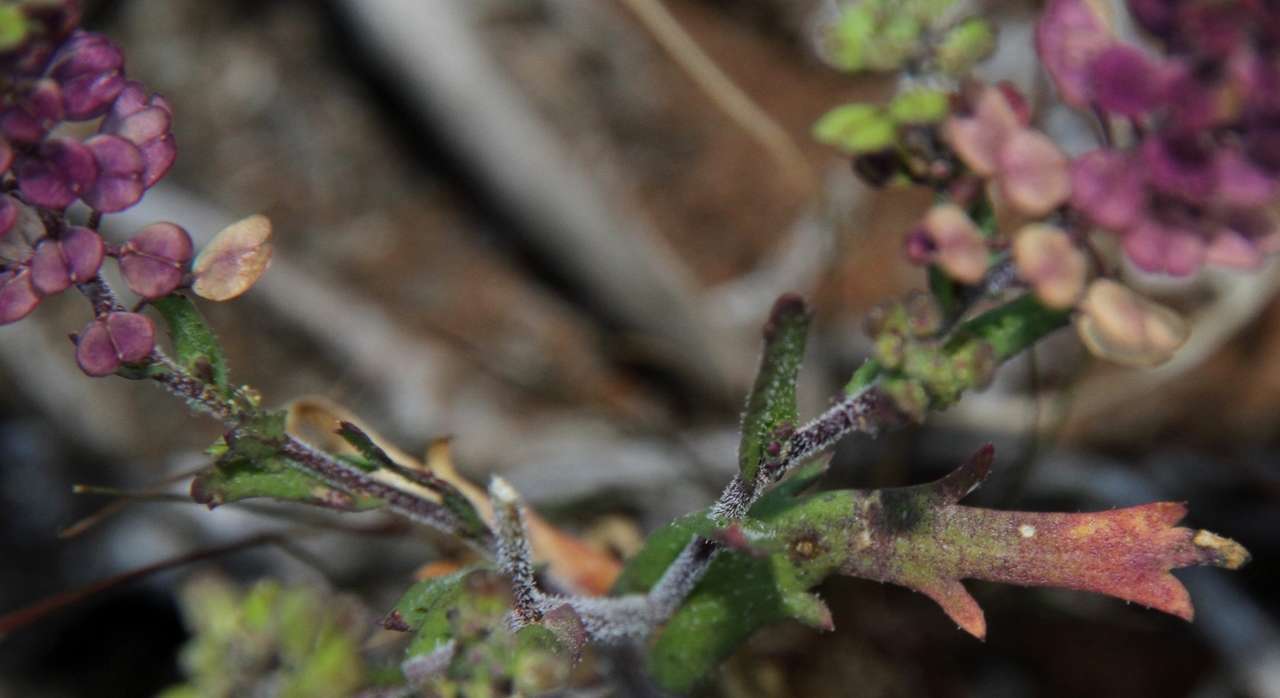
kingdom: Plantae
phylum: Tracheophyta
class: Magnoliopsida
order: Brassicales
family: Brassicaceae
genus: Lepidium
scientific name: Lepidium papillosum
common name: Warty pepperwort
